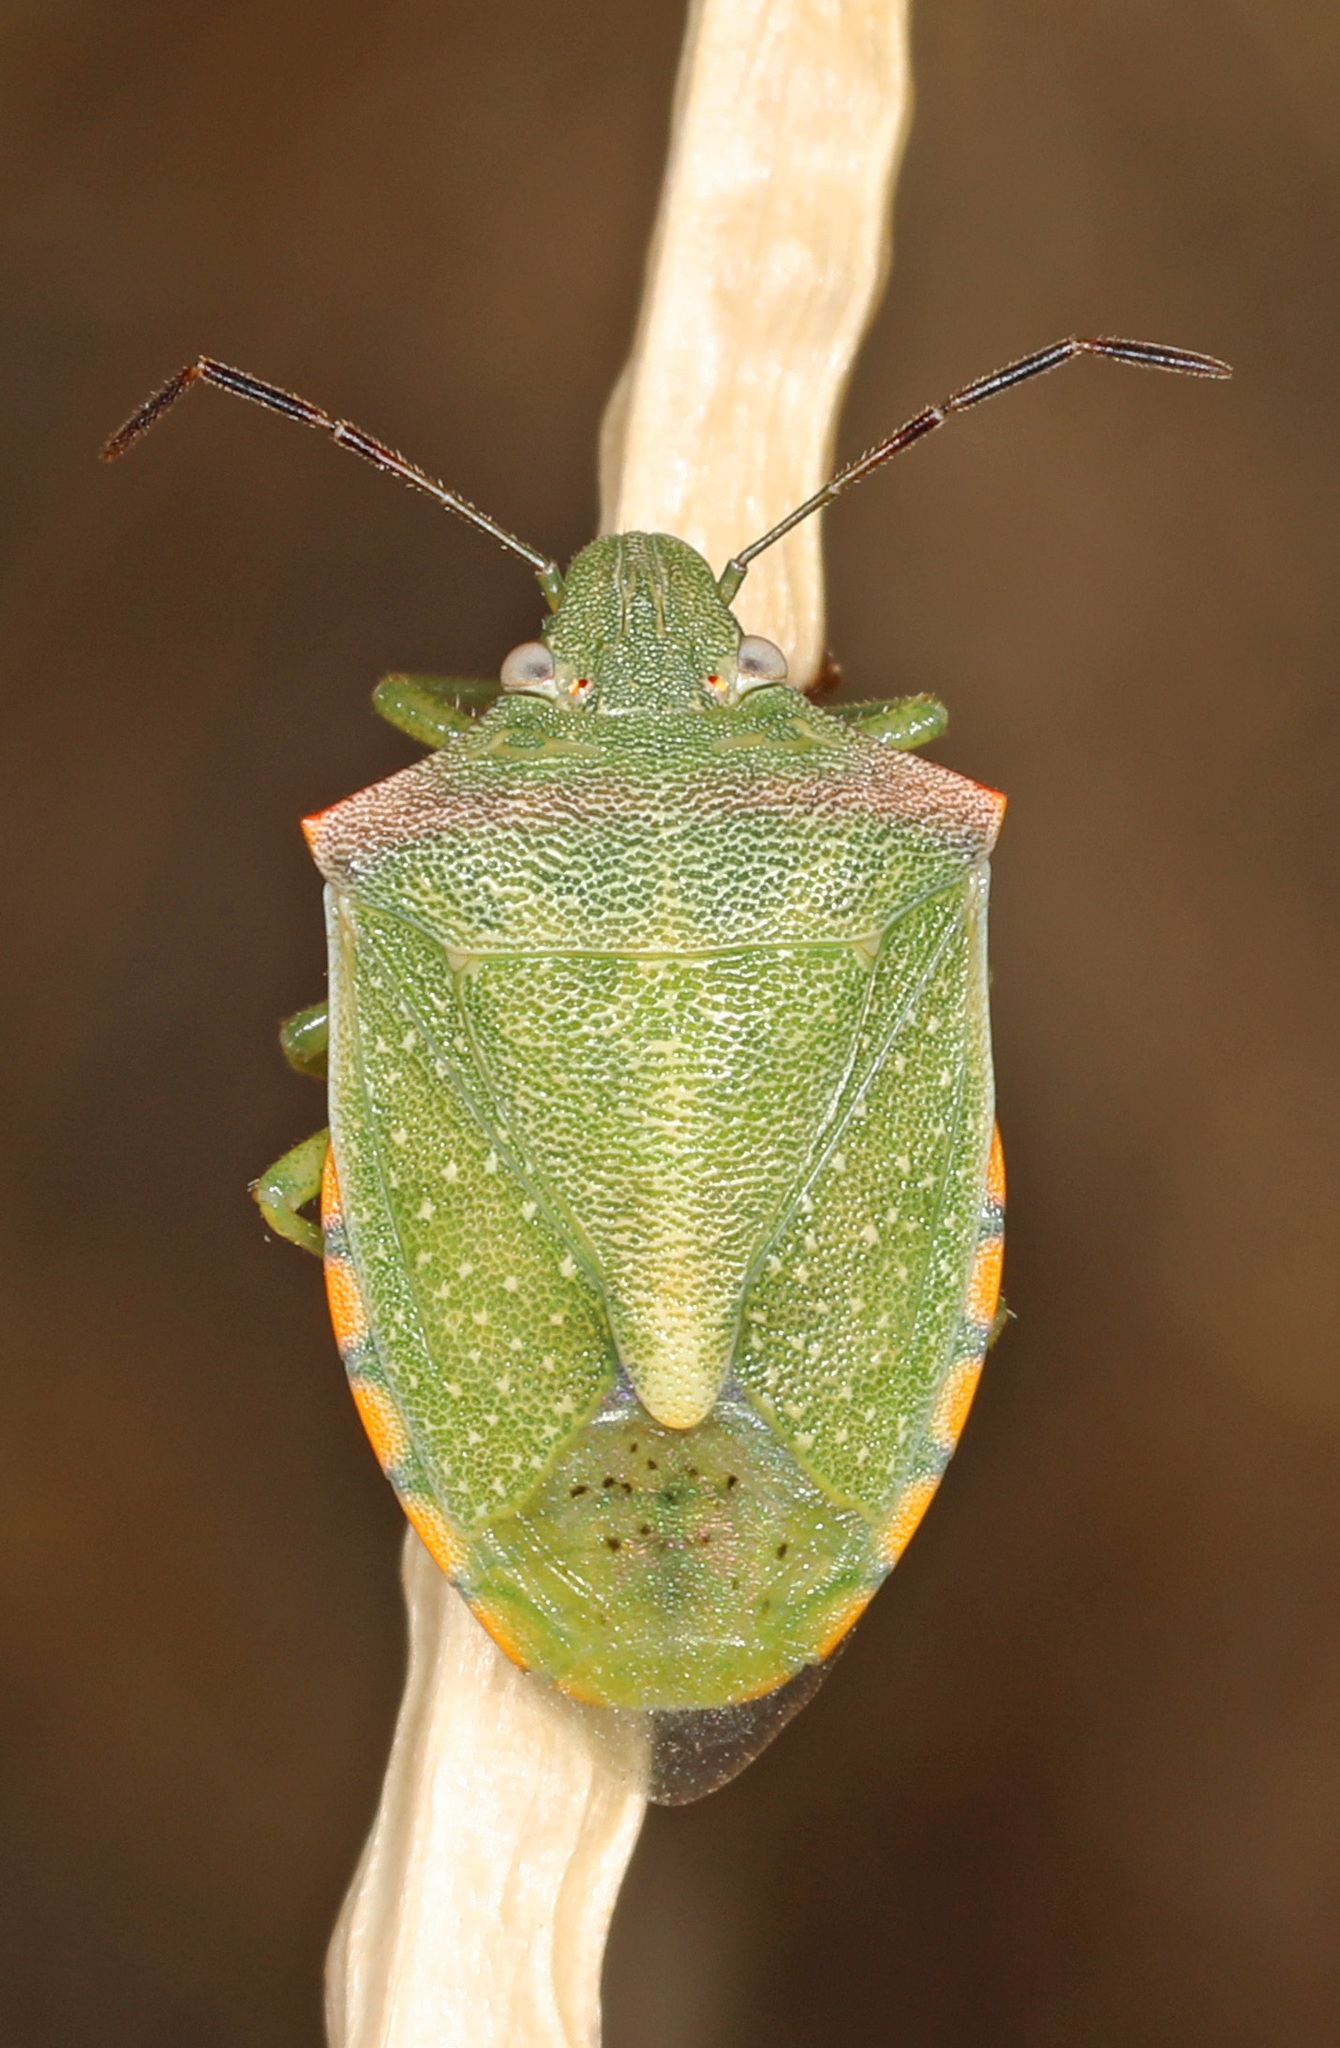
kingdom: Animalia
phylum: Arthropoda
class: Insecta
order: Hemiptera
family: Pentatomidae
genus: Thyanta
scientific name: Thyanta custator
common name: Stink bug
